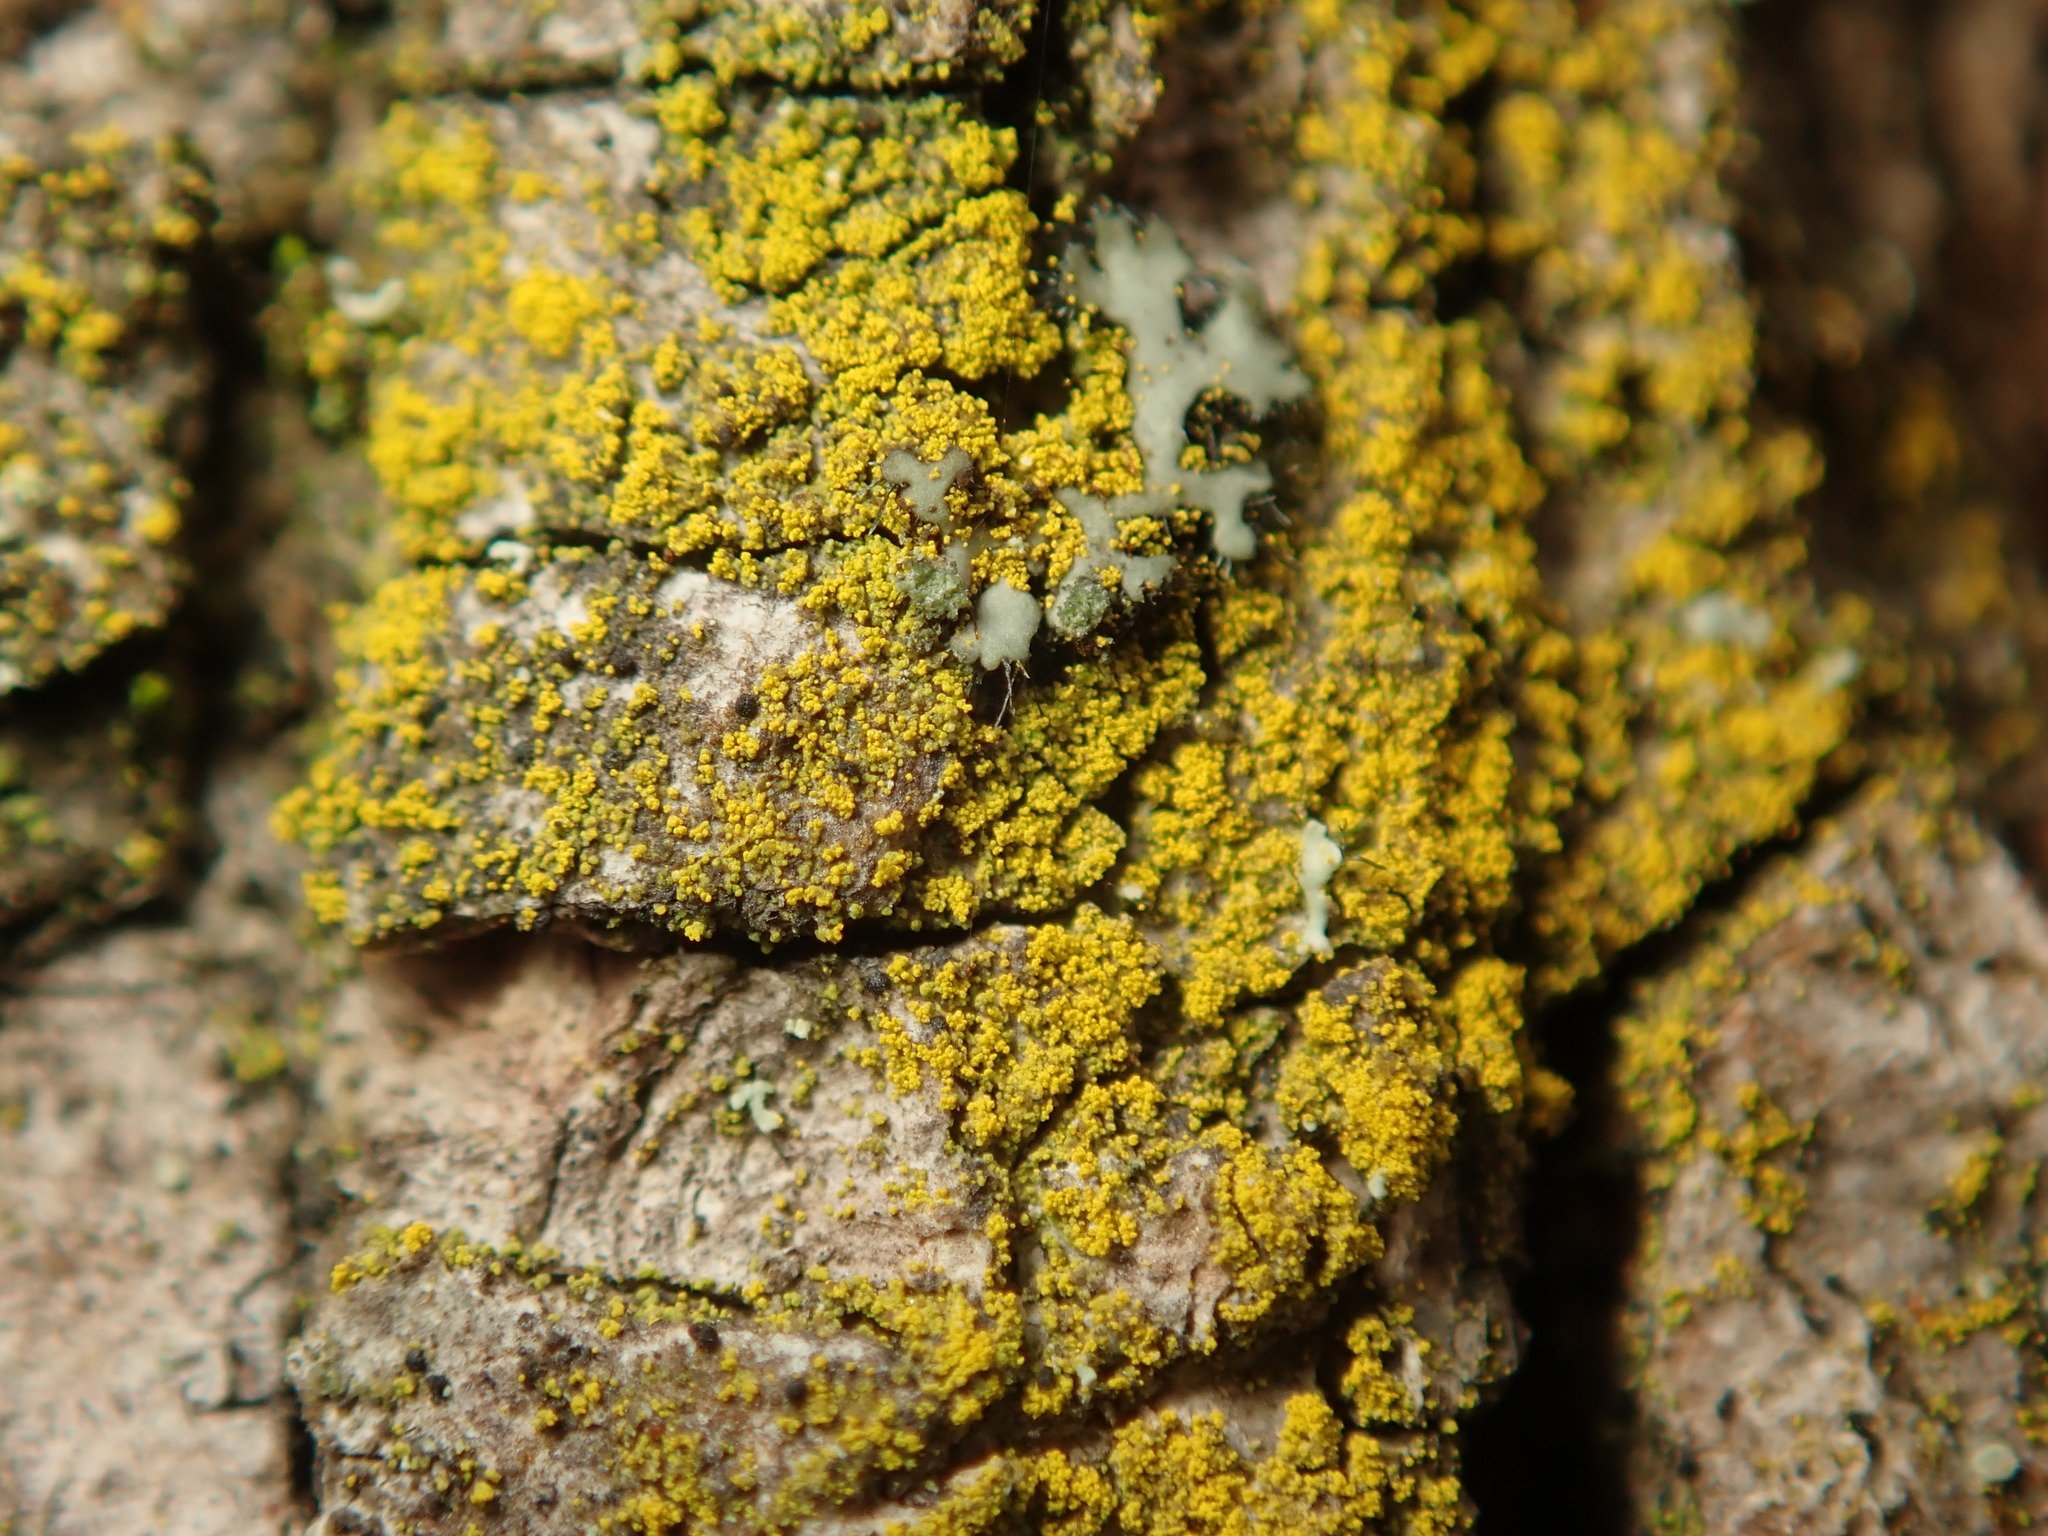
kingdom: Fungi
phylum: Ascomycota
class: Candelariomycetes
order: Candelariales
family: Candelariaceae
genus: Candelariella
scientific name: Candelariella xanthostigma
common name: Granular goldspeck lichen
